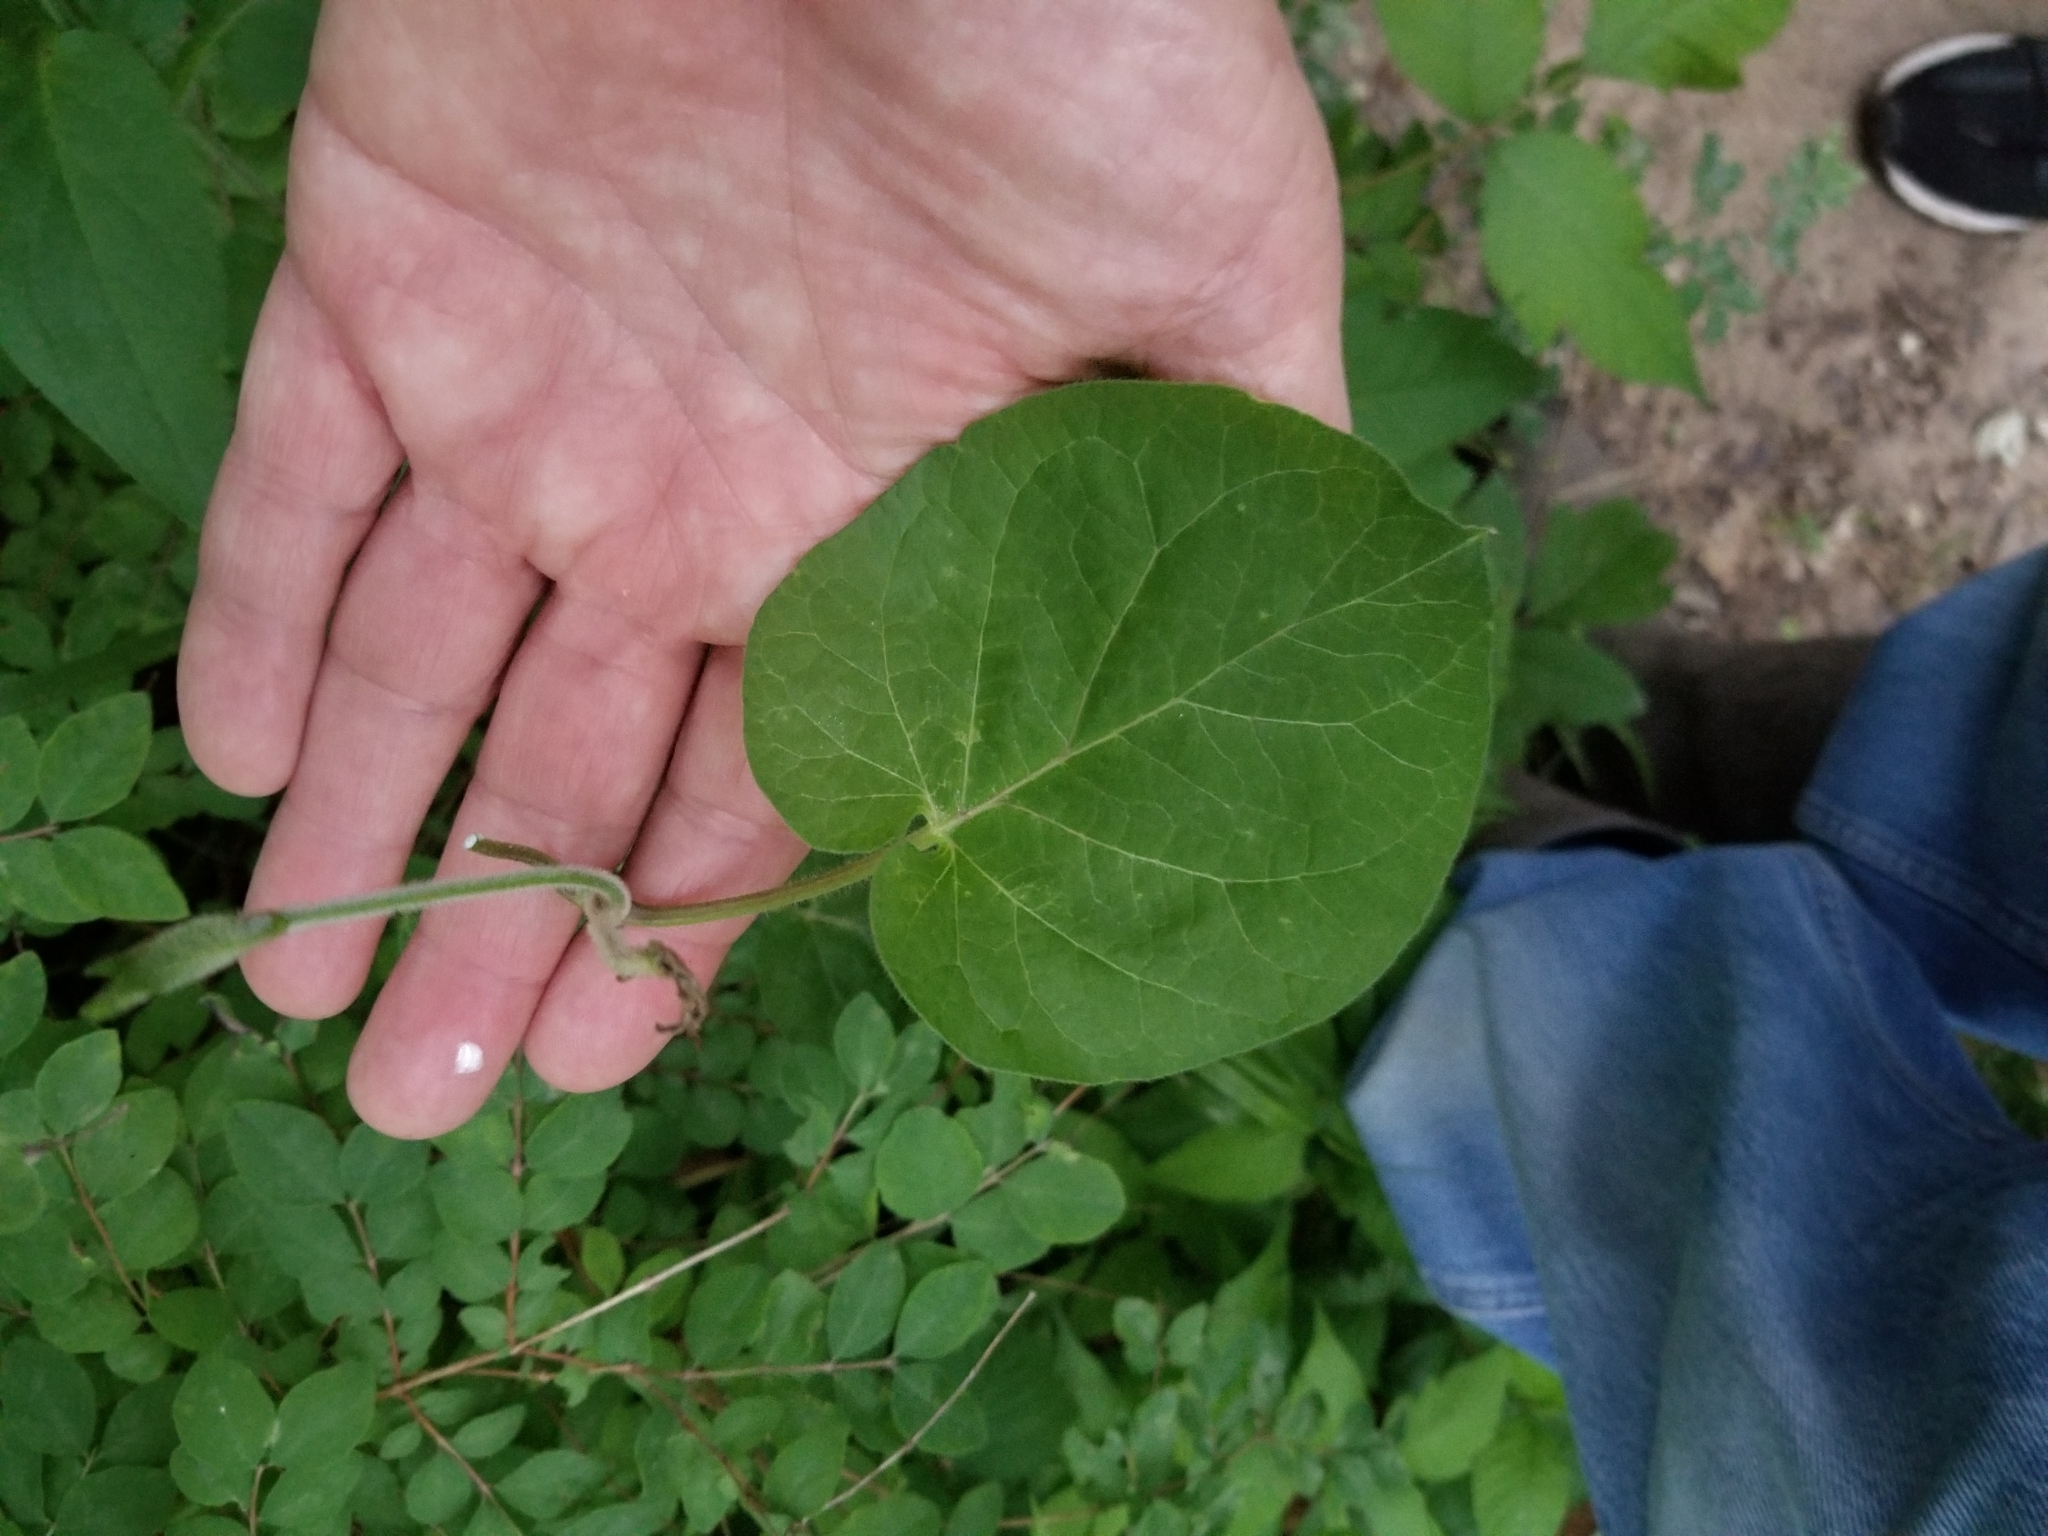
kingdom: Plantae
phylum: Tracheophyta
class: Magnoliopsida
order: Gentianales
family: Apocynaceae
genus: Gonolobus
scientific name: Gonolobus suberosus
